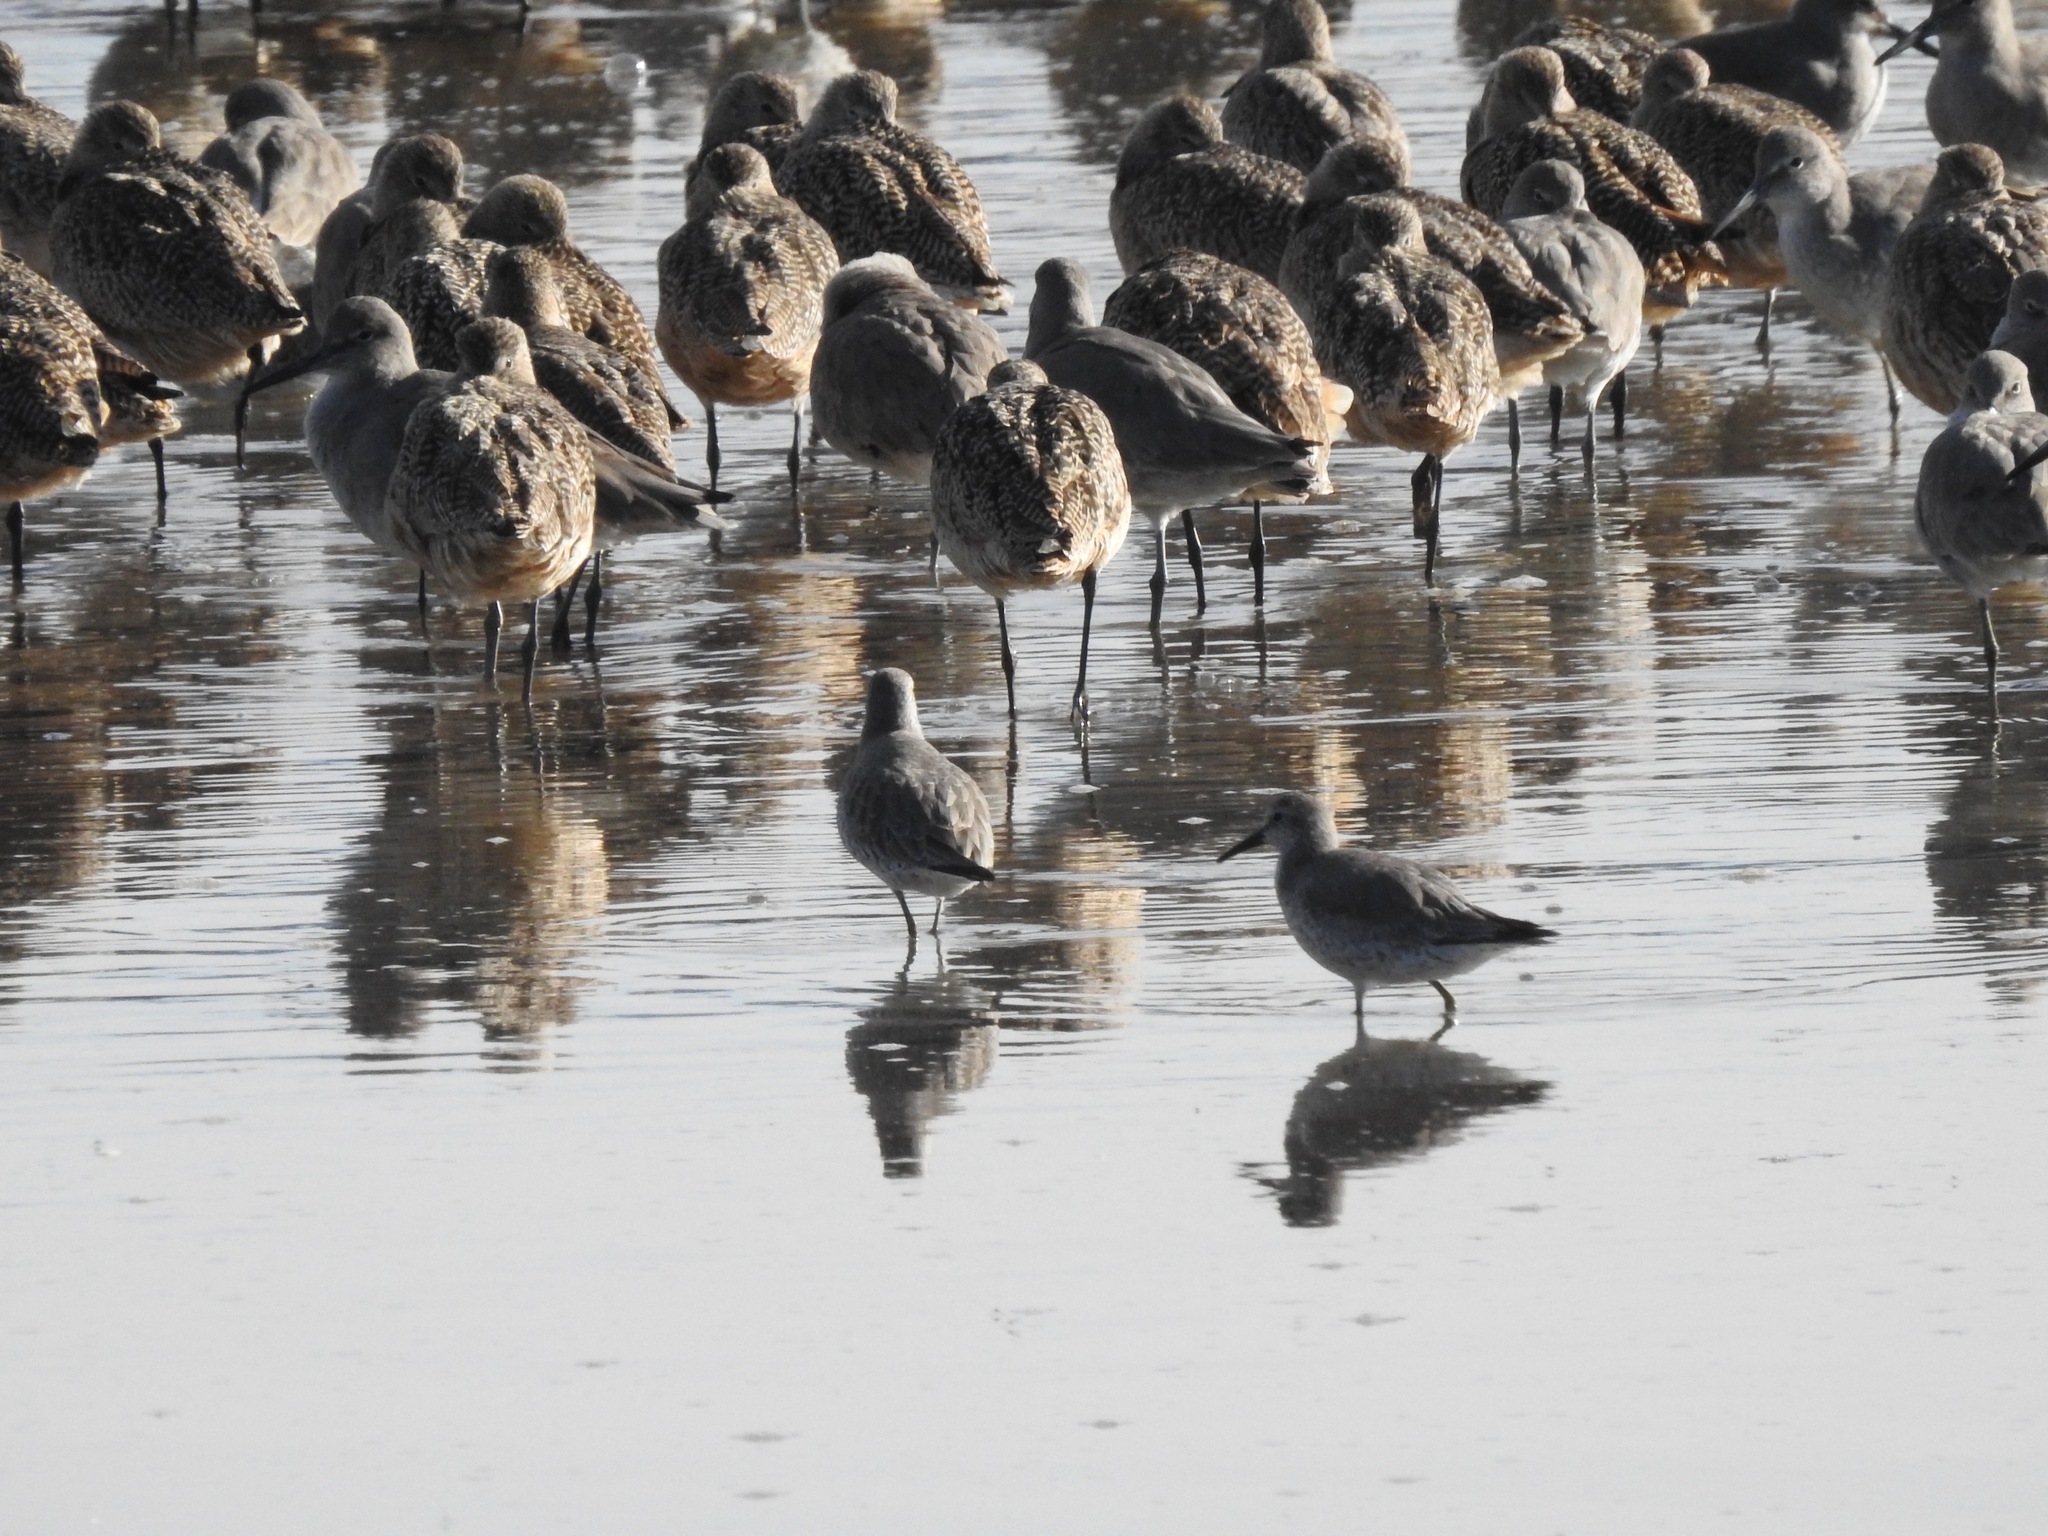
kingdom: Animalia
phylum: Chordata
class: Aves
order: Charadriiformes
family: Scolopacidae
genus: Calidris
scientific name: Calidris canutus
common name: Red knot
